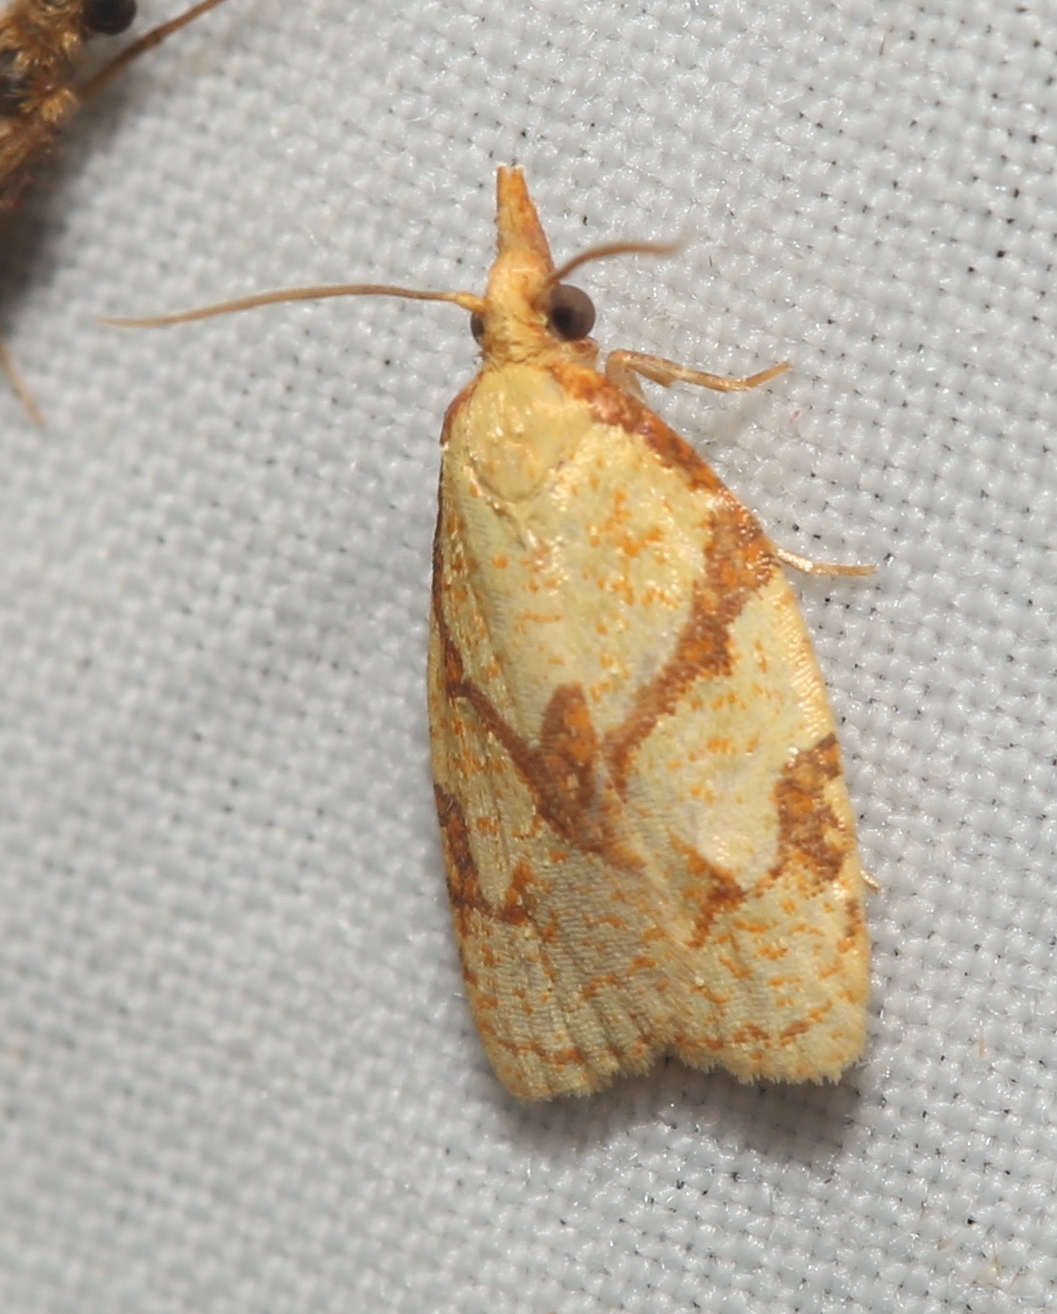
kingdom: Animalia
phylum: Arthropoda
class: Insecta
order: Lepidoptera
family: Tortricidae
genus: Cenopis
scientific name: Cenopis reticulatana
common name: Reticulated fruitworm moth
